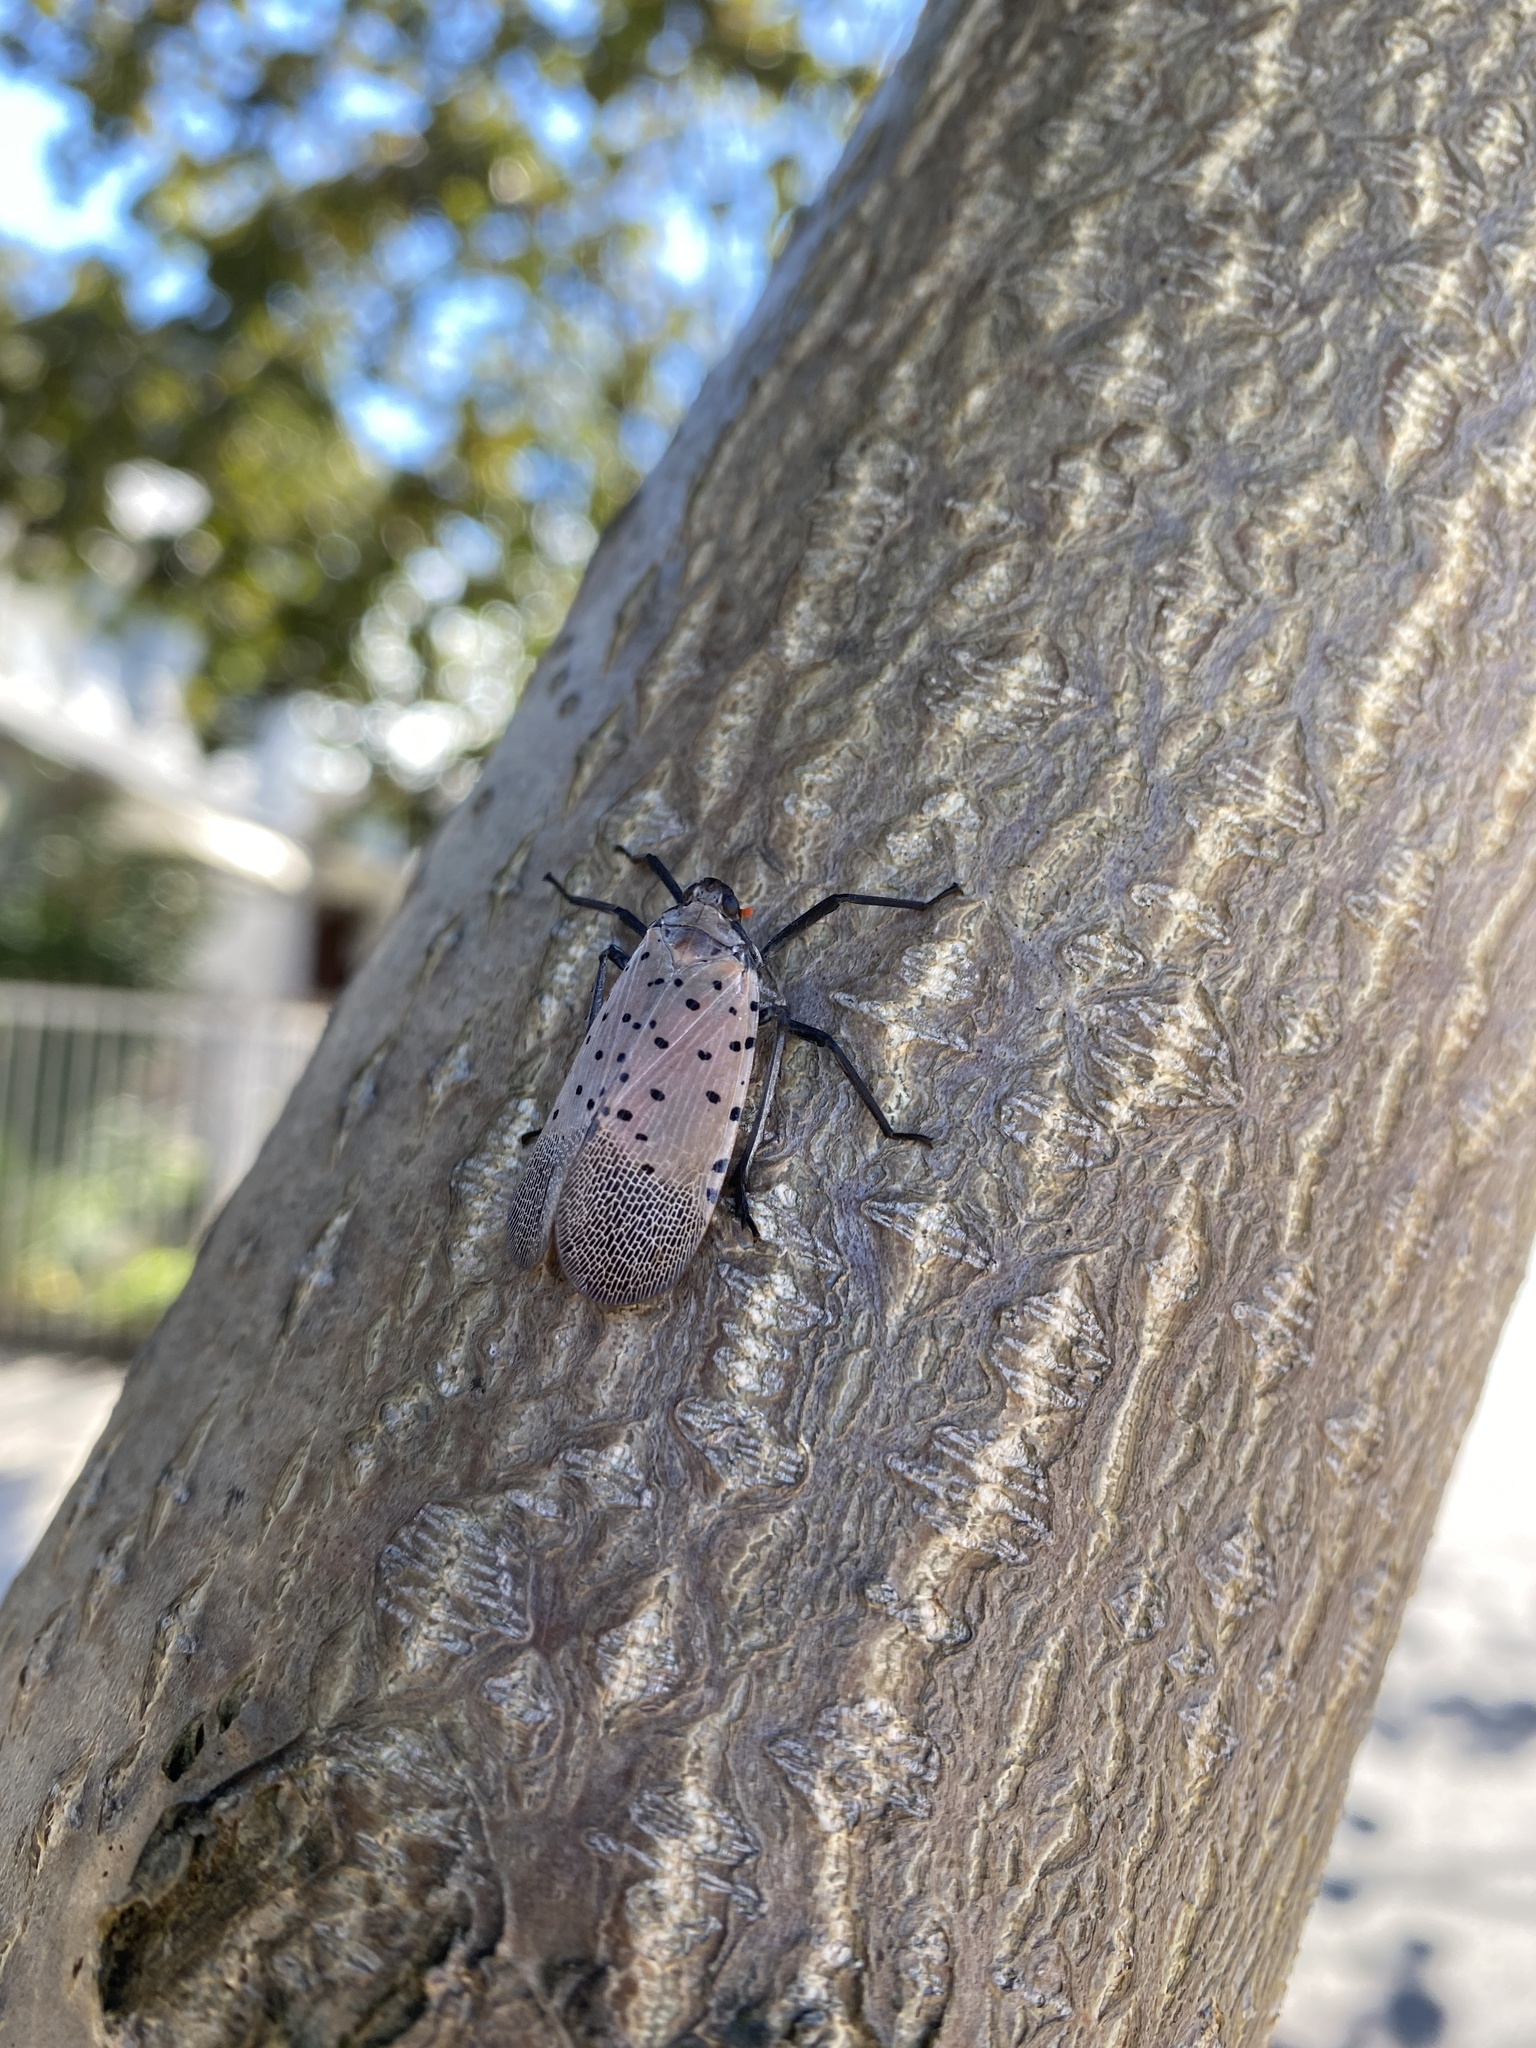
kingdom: Animalia
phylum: Arthropoda
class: Insecta
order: Hemiptera
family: Fulgoridae
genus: Lycorma
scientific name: Lycorma delicatula
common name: Spotted lanternfly
